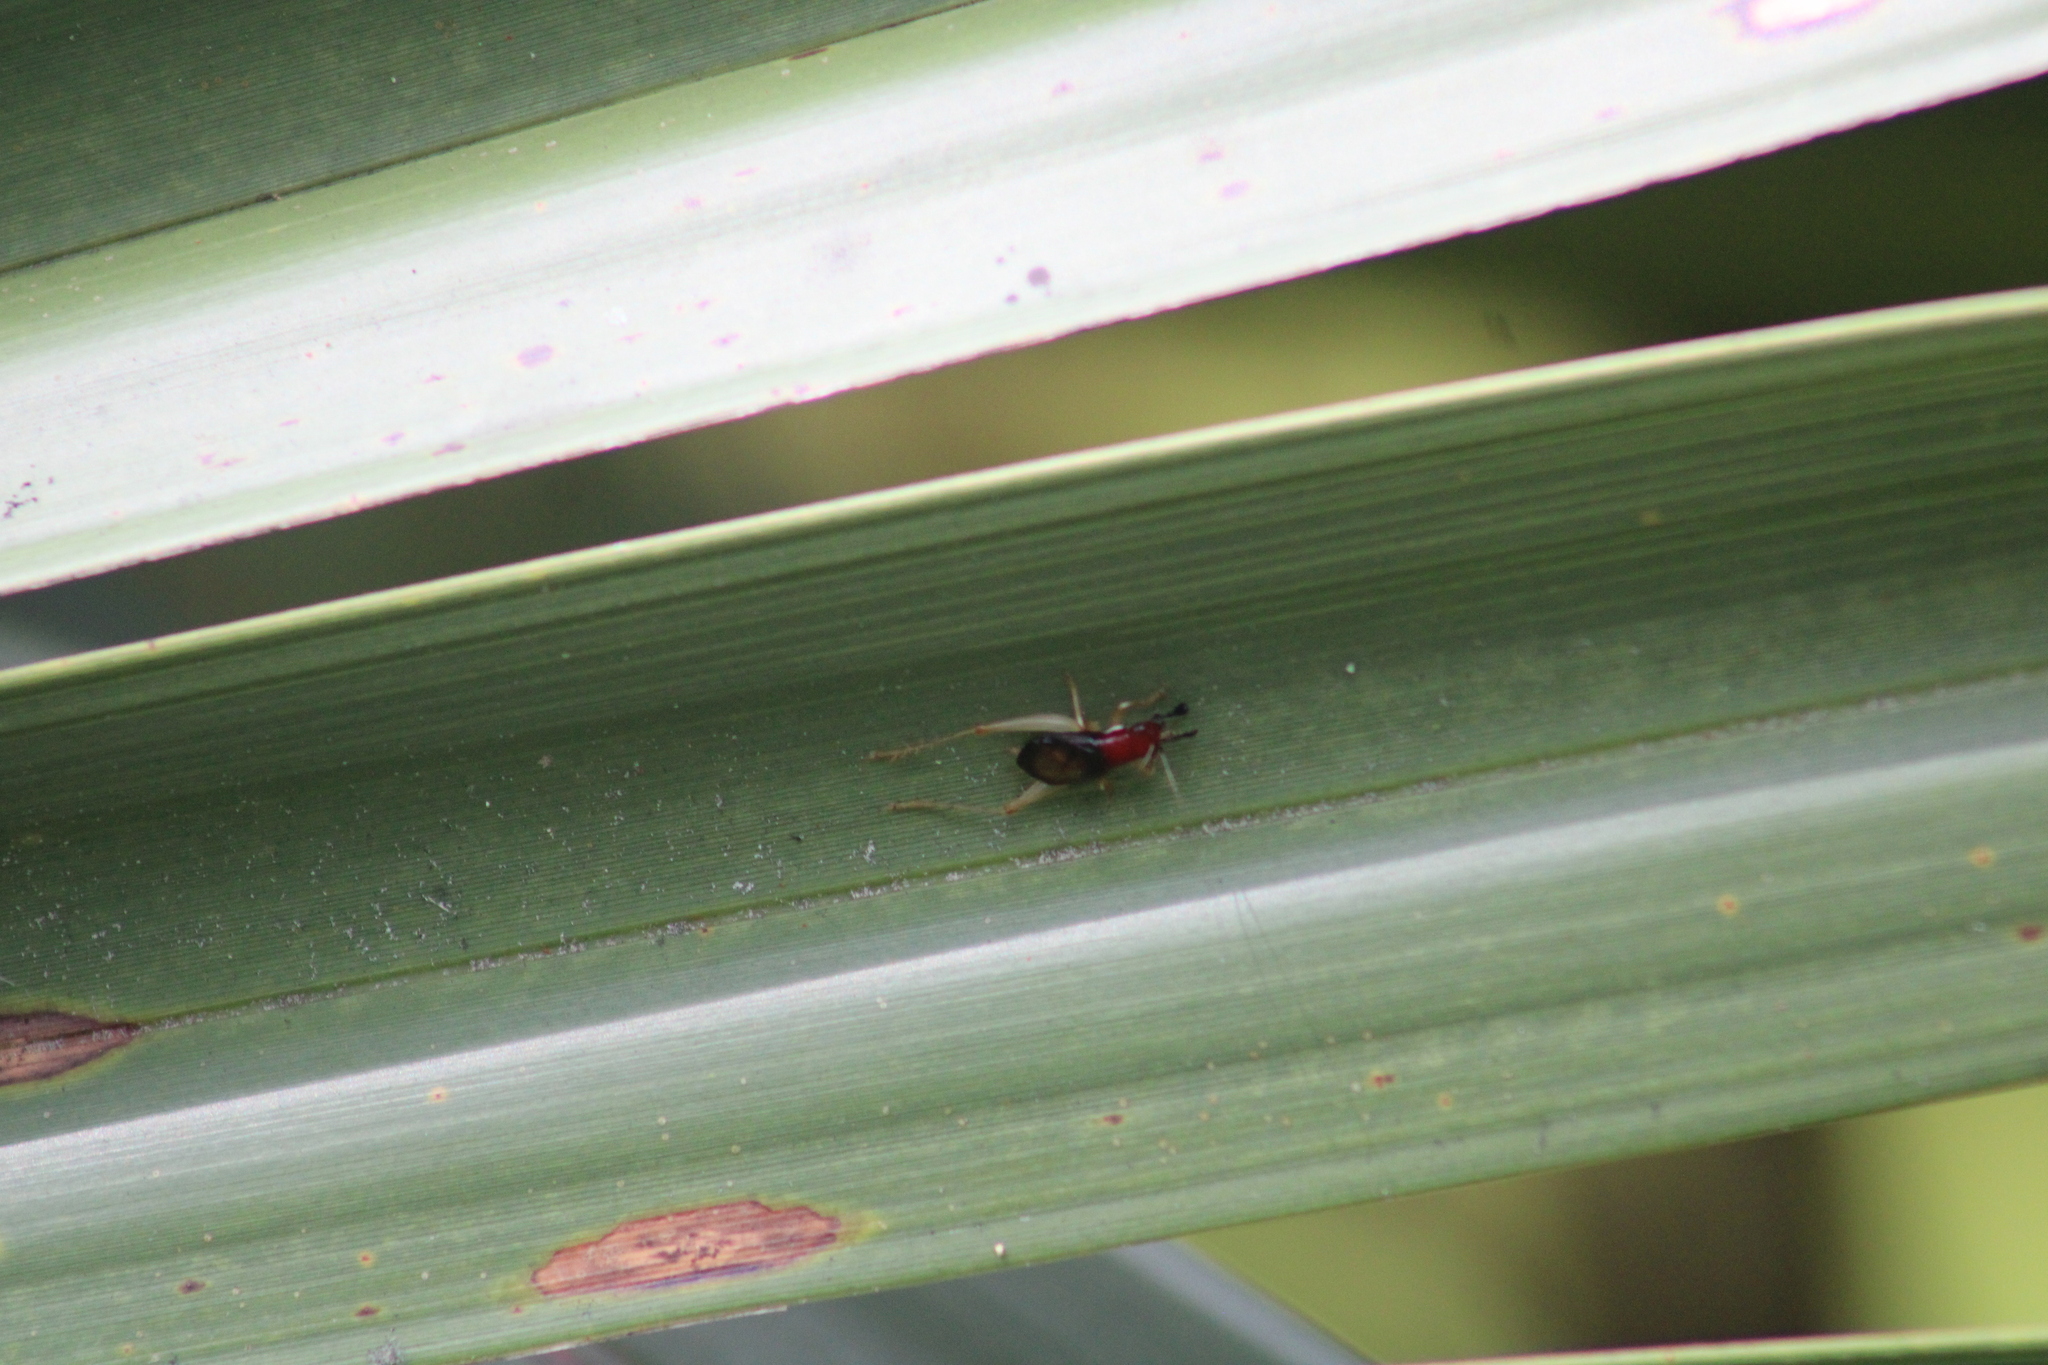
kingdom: Animalia
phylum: Arthropoda
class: Insecta
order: Orthoptera
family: Trigonidiidae
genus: Phyllopalpus
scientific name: Phyllopalpus pulchellus
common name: Handsome trig
